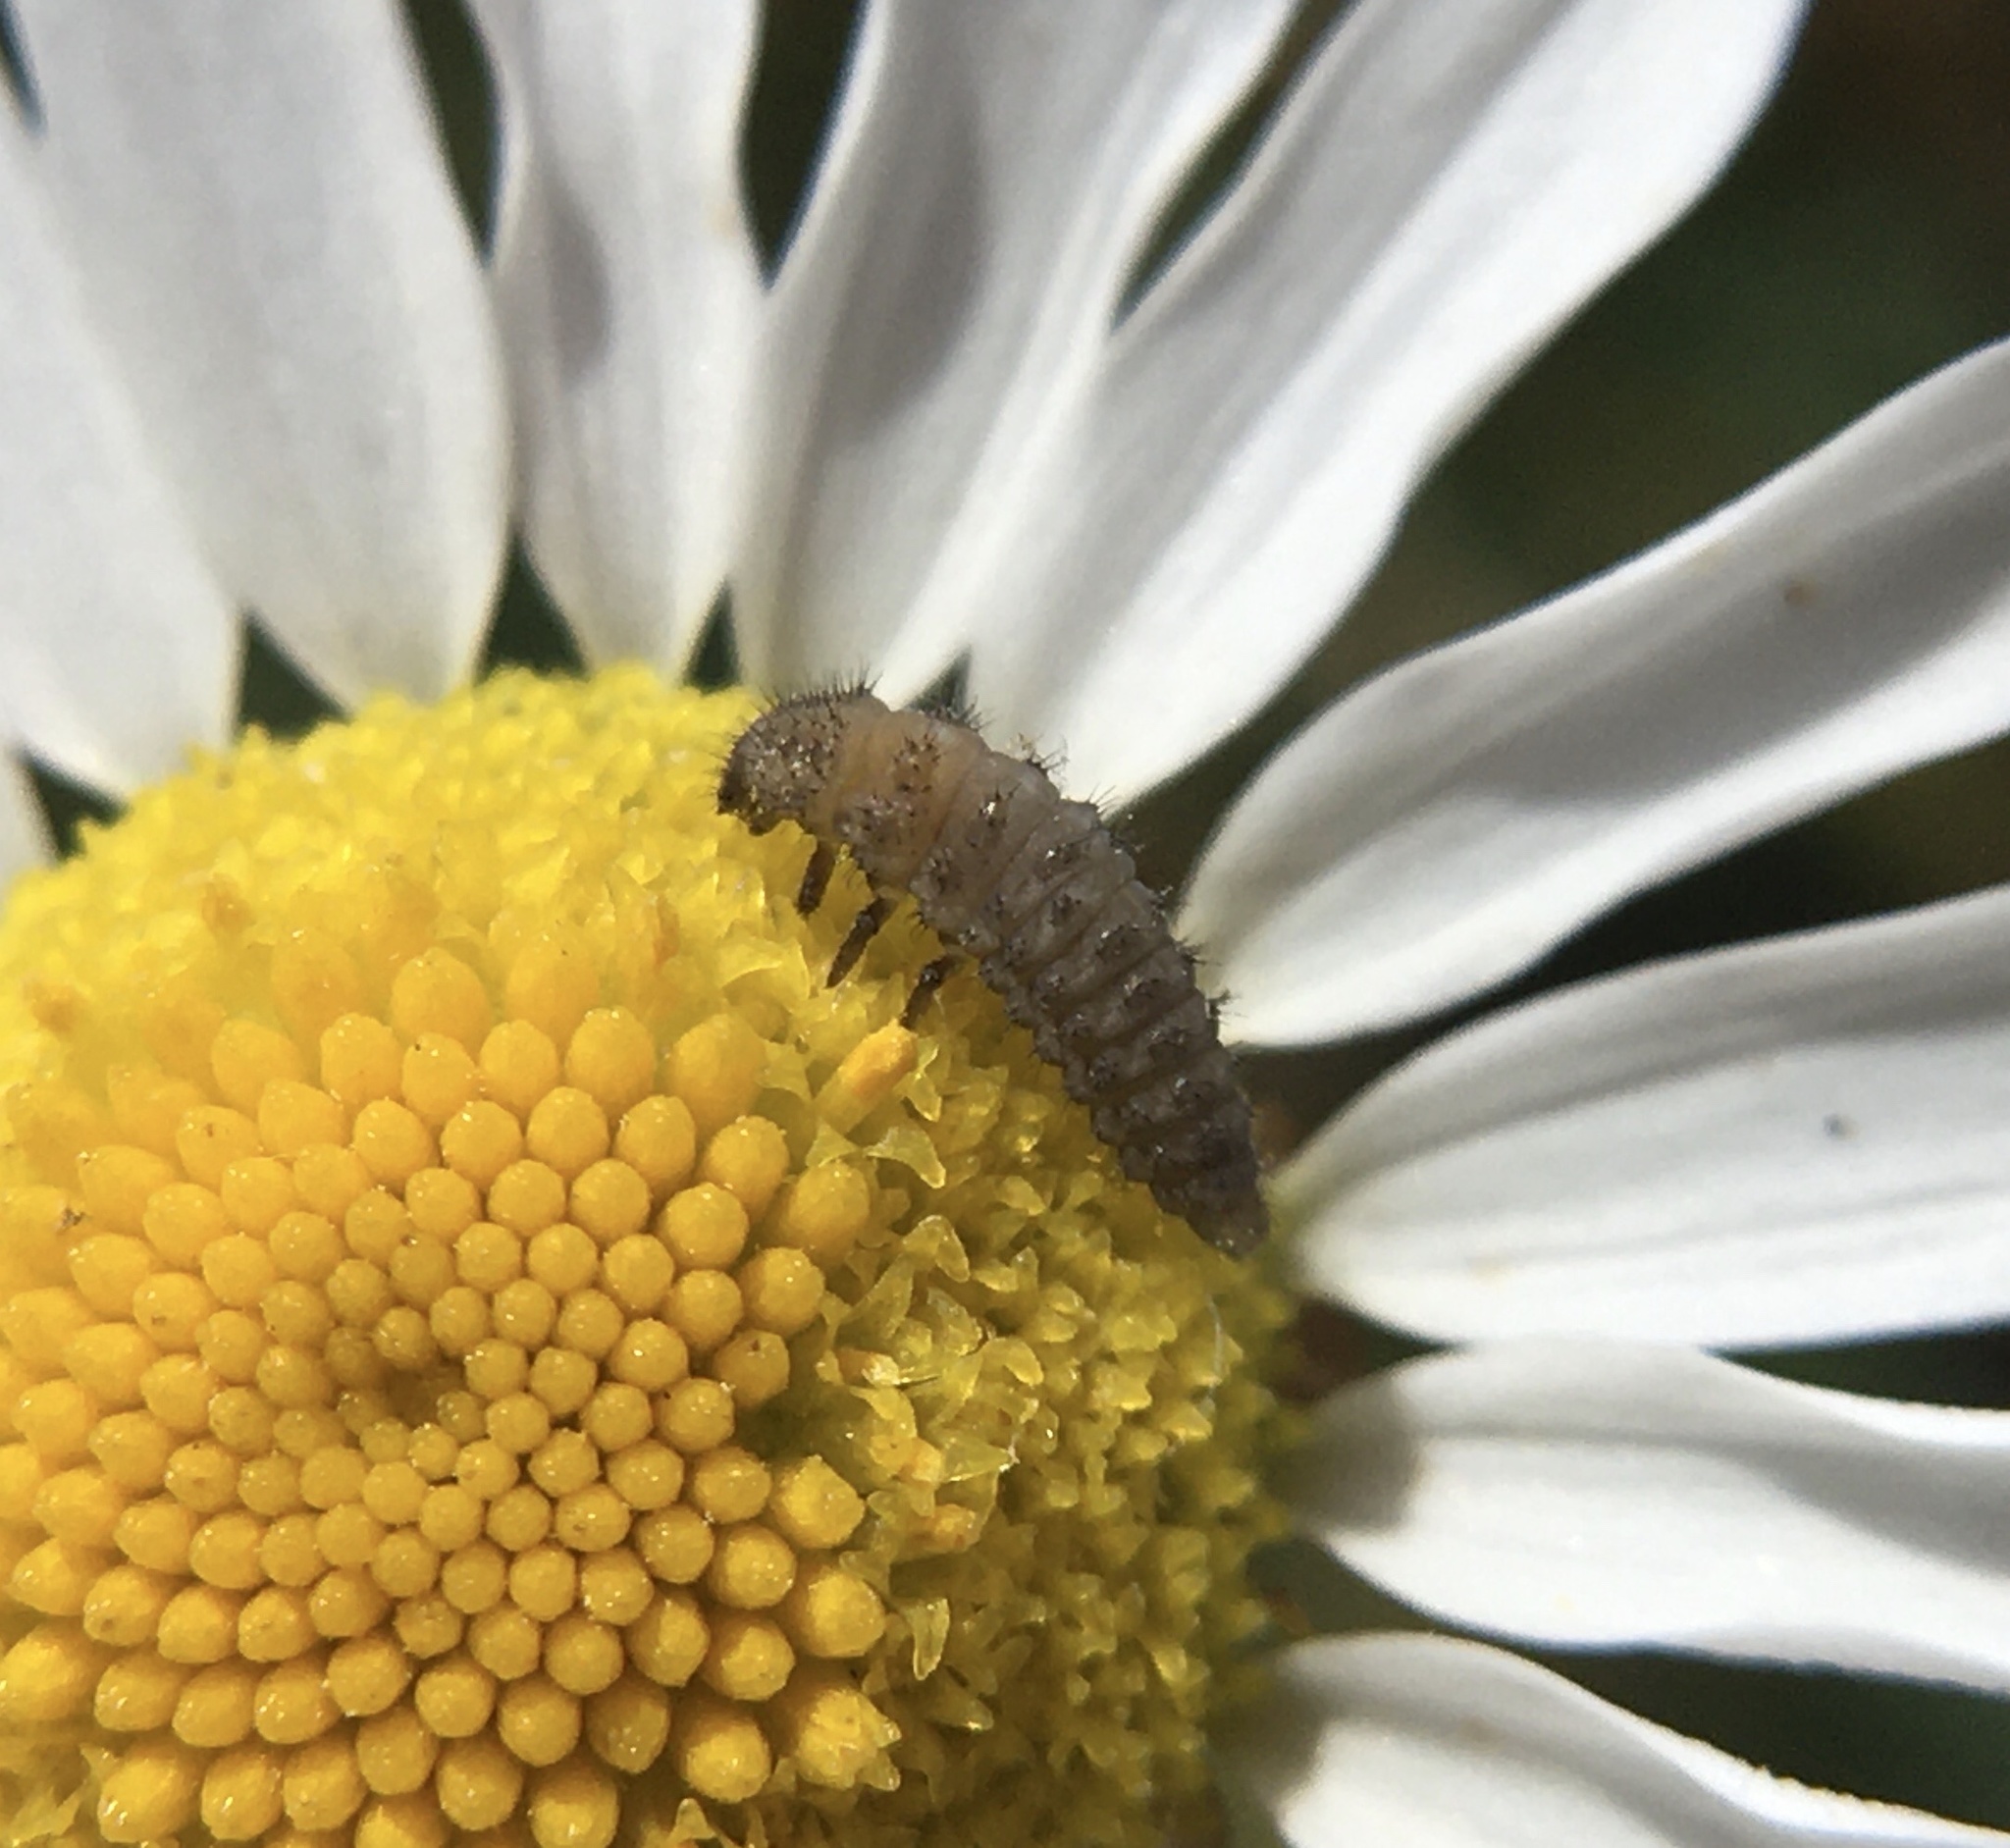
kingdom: Animalia
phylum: Arthropoda
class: Insecta
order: Coleoptera
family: Coccinellidae
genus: Tytthaspis
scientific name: Tytthaspis sedecimpunctata
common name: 16-spot ladybird
